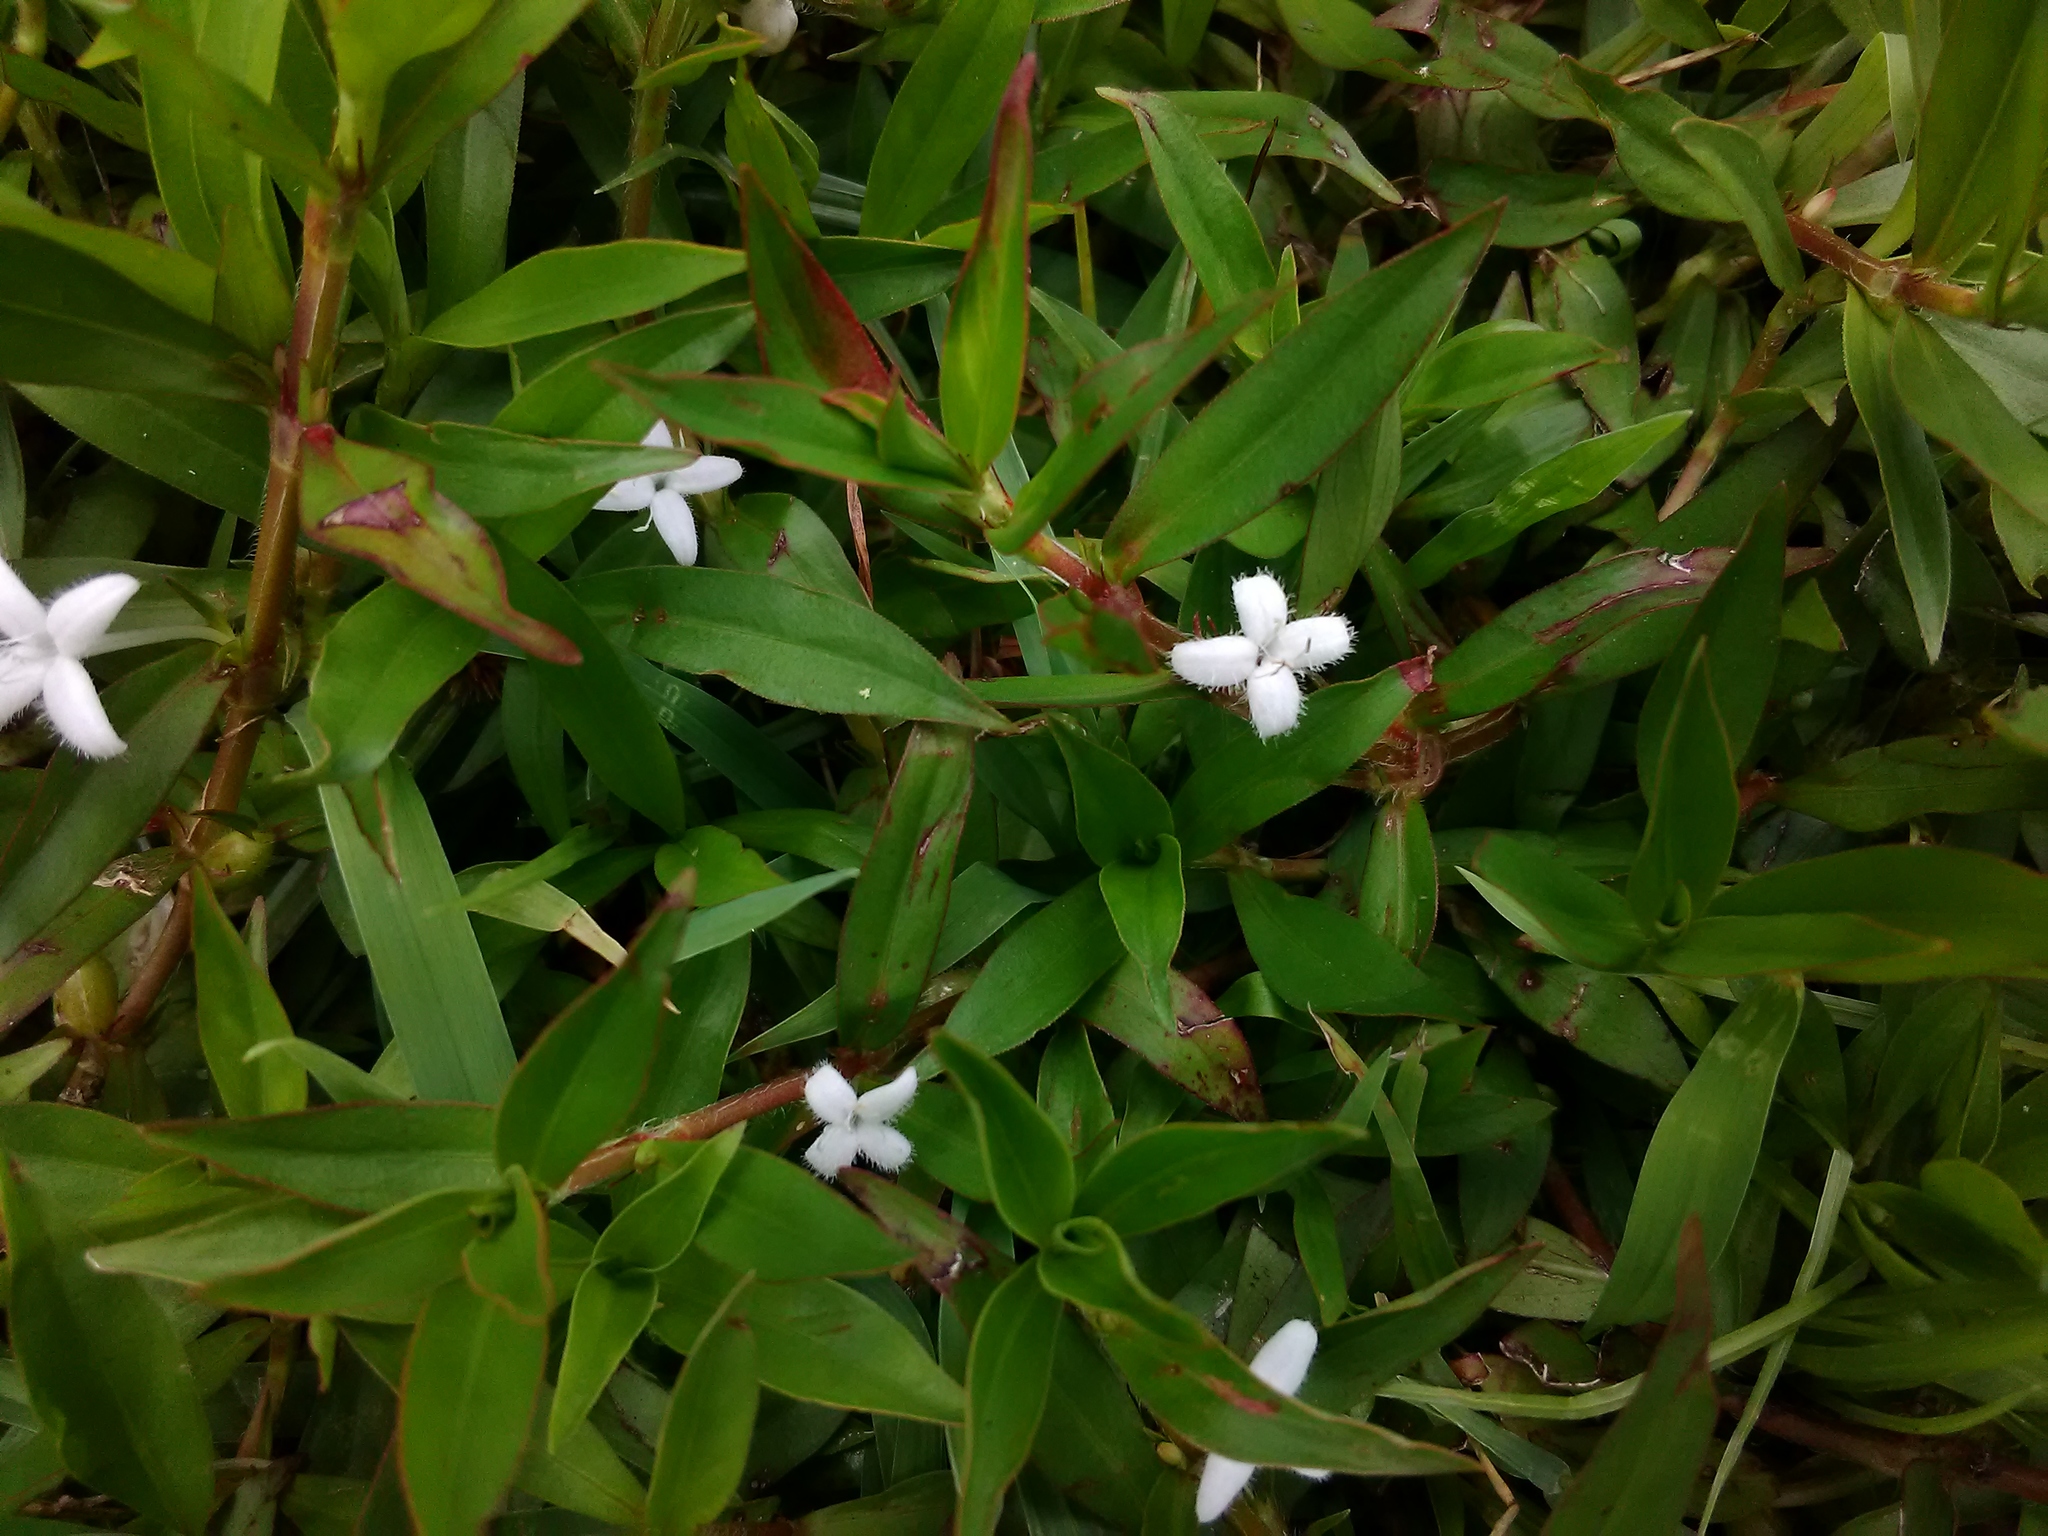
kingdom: Plantae
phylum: Tracheophyta
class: Magnoliopsida
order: Gentianales
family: Rubiaceae
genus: Diodia
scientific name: Diodia virginiana
